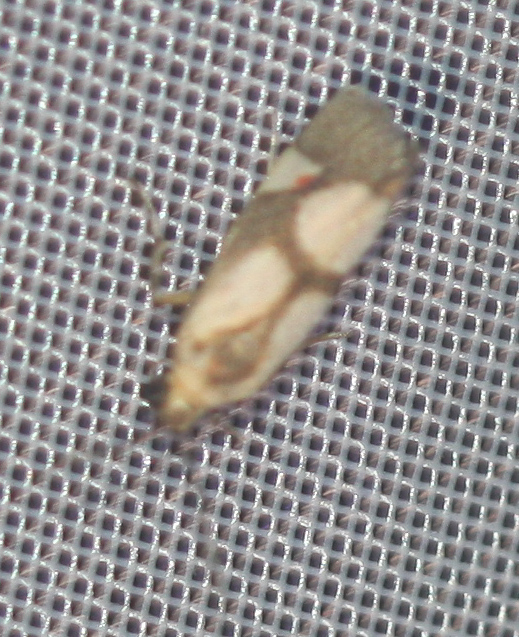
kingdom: Animalia
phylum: Arthropoda
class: Insecta
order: Lepidoptera
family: Erebidae
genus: Nodozana
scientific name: Nodozana thricophora
